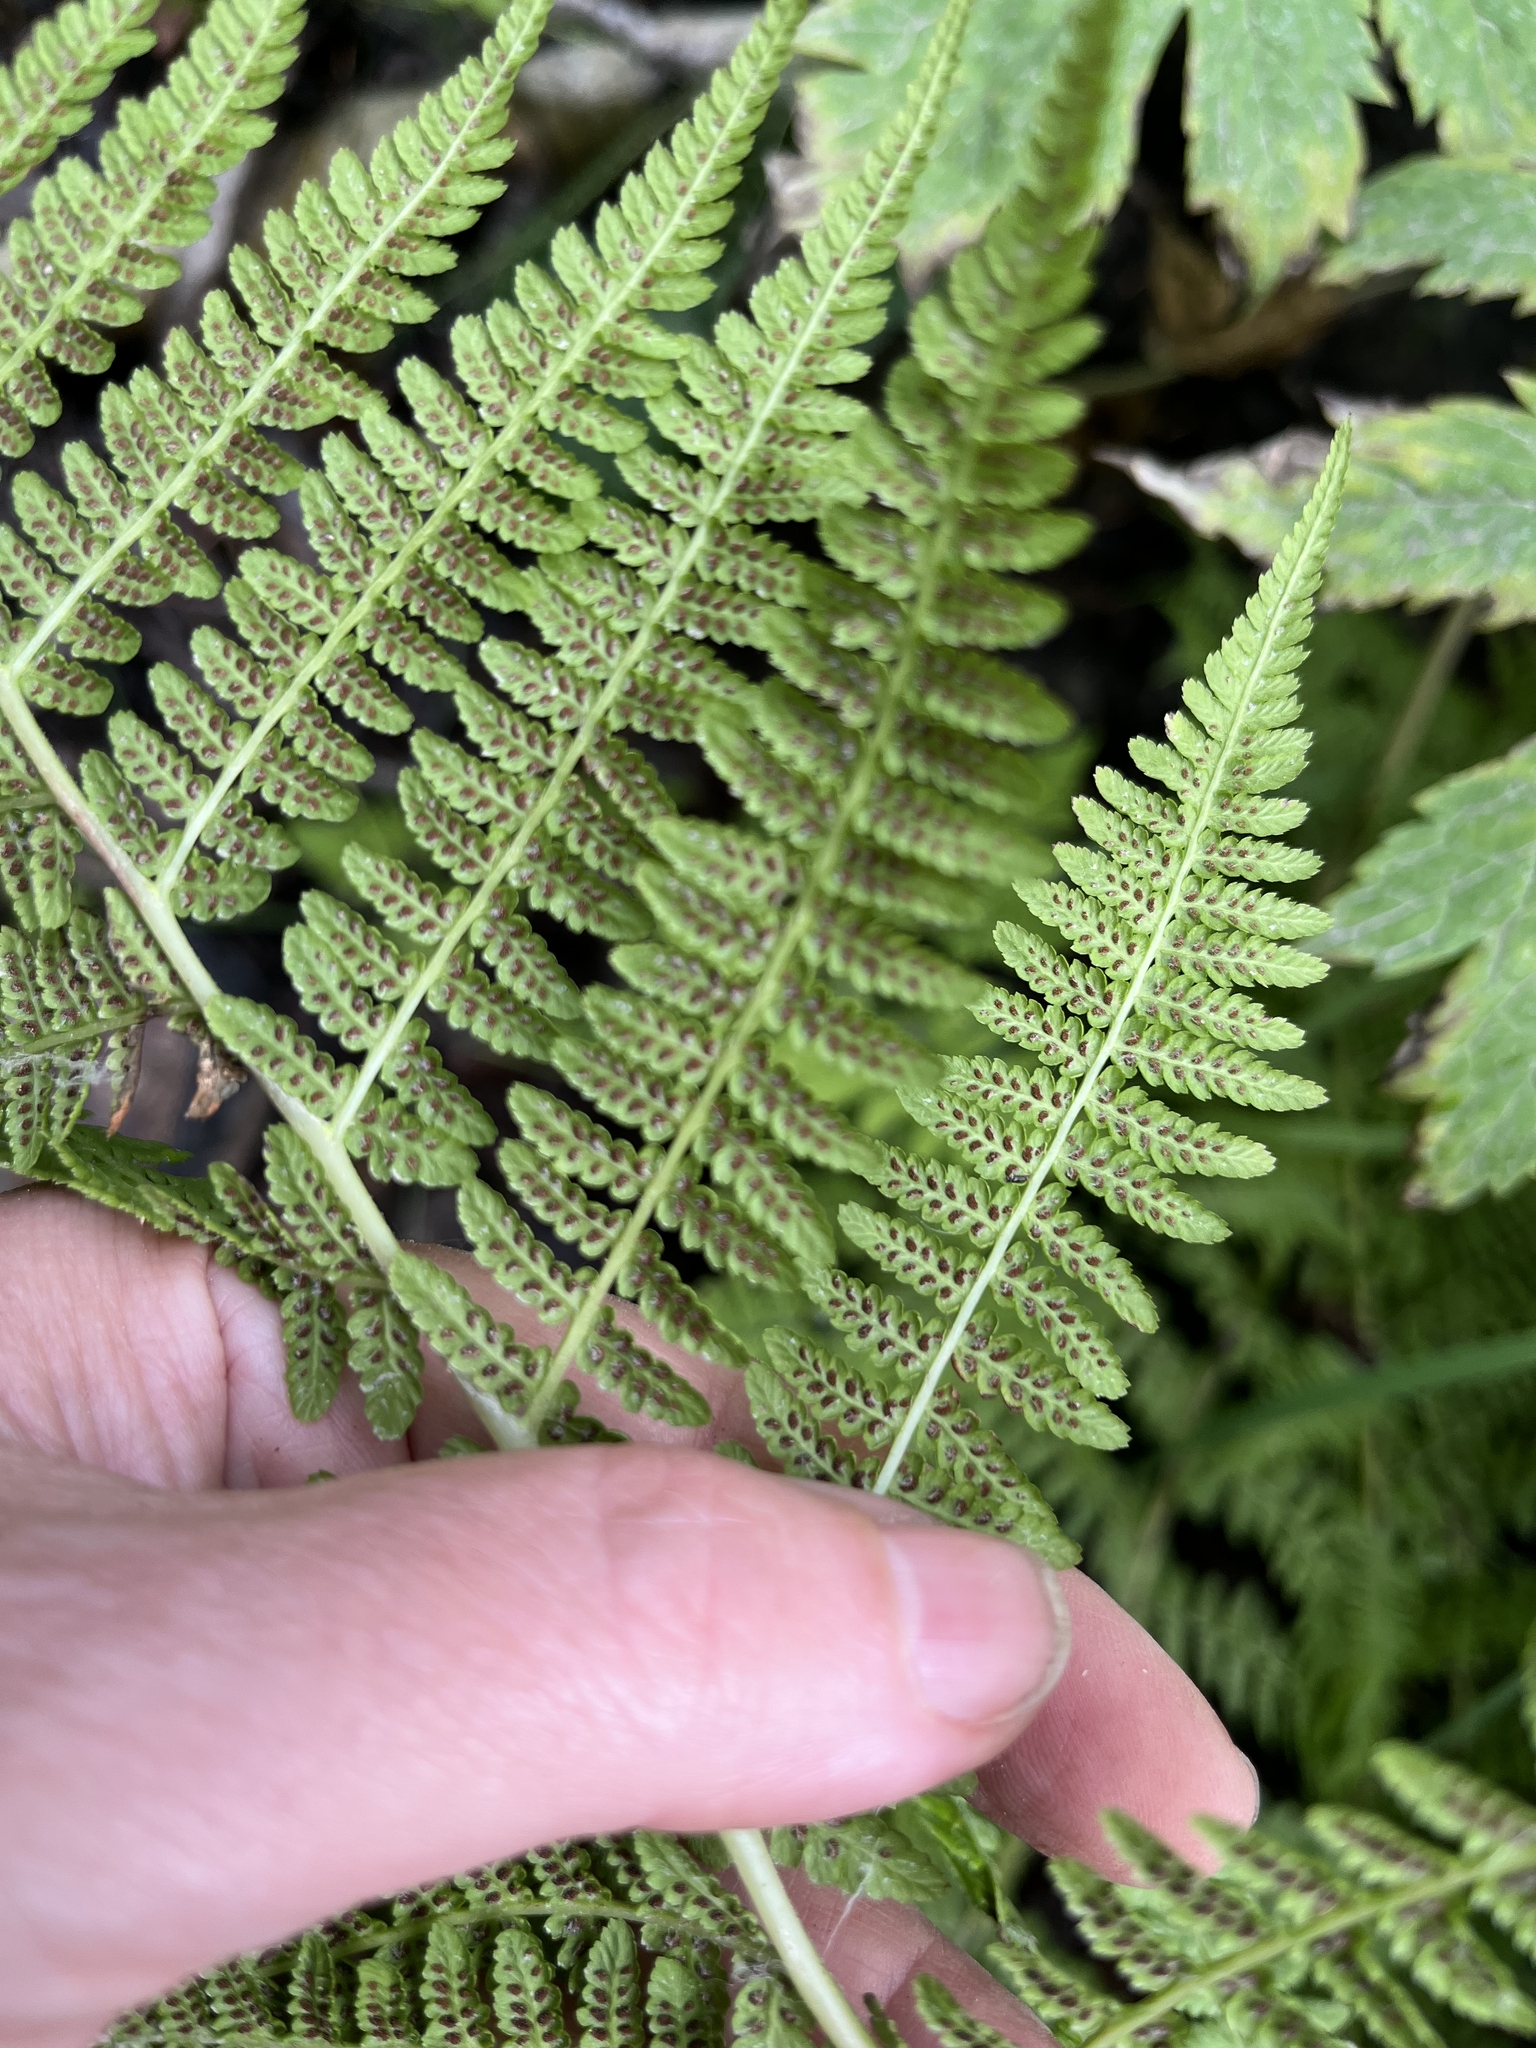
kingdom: Plantae
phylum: Tracheophyta
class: Polypodiopsida
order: Polypodiales
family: Athyriaceae
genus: Athyrium
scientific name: Athyrium filix-femina
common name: Lady fern
